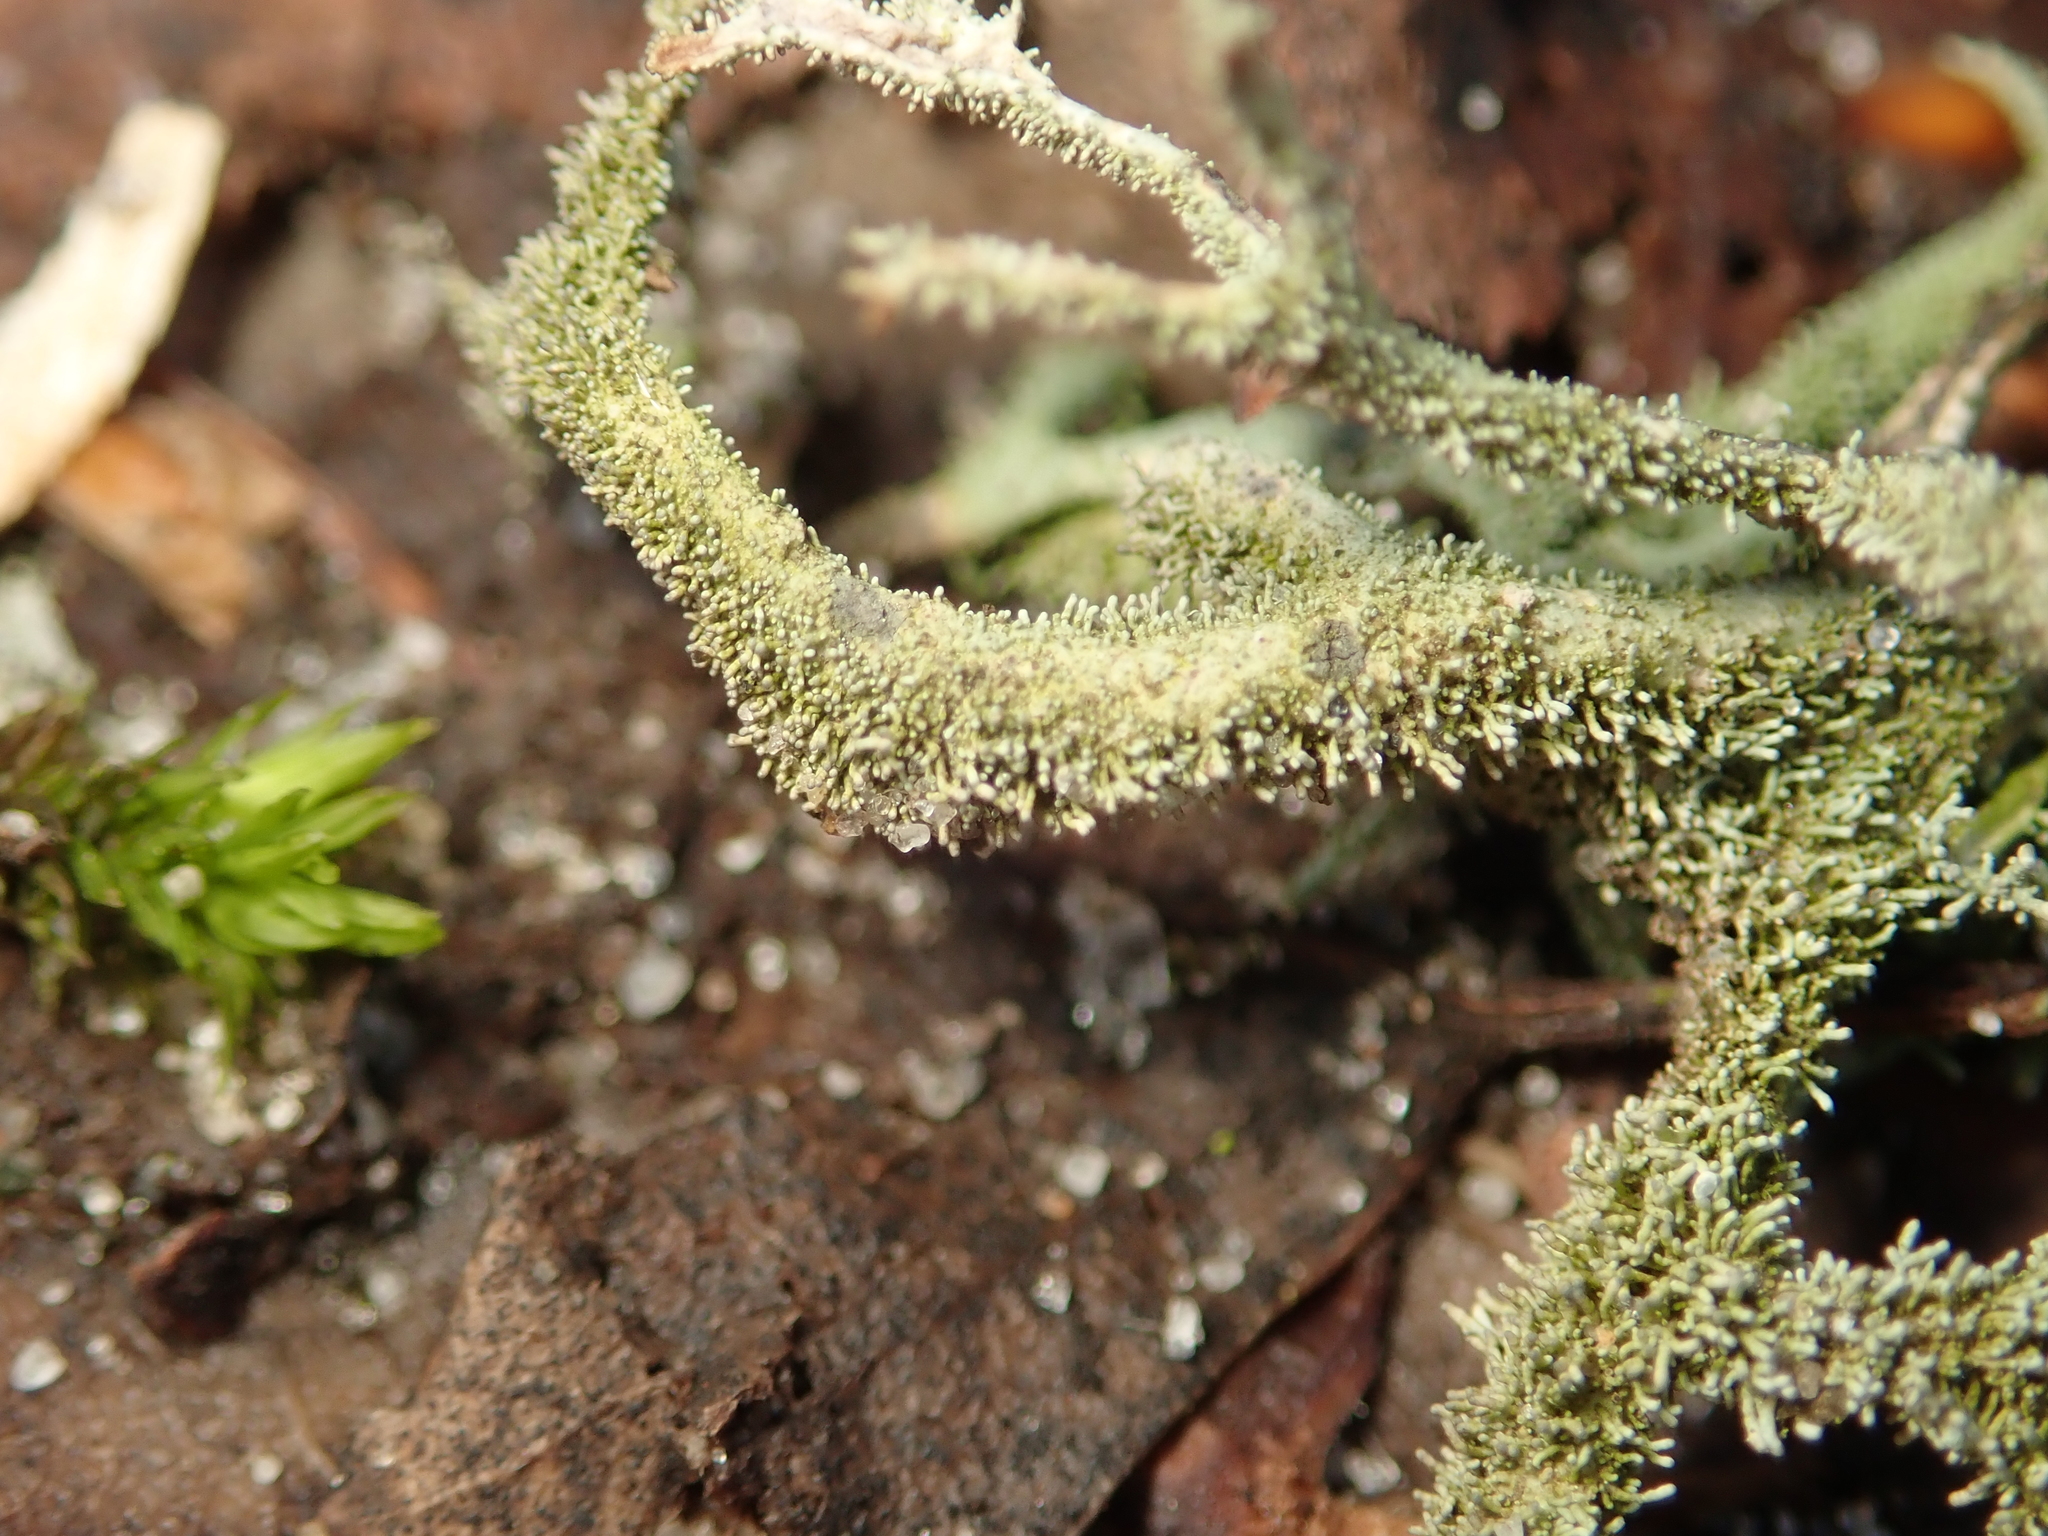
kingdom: Fungi
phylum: Ascomycota
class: Lecanoromycetes
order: Lecanorales
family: Parmeliaceae
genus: Pseudevernia
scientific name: Pseudevernia furfuracea
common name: Tree moss
